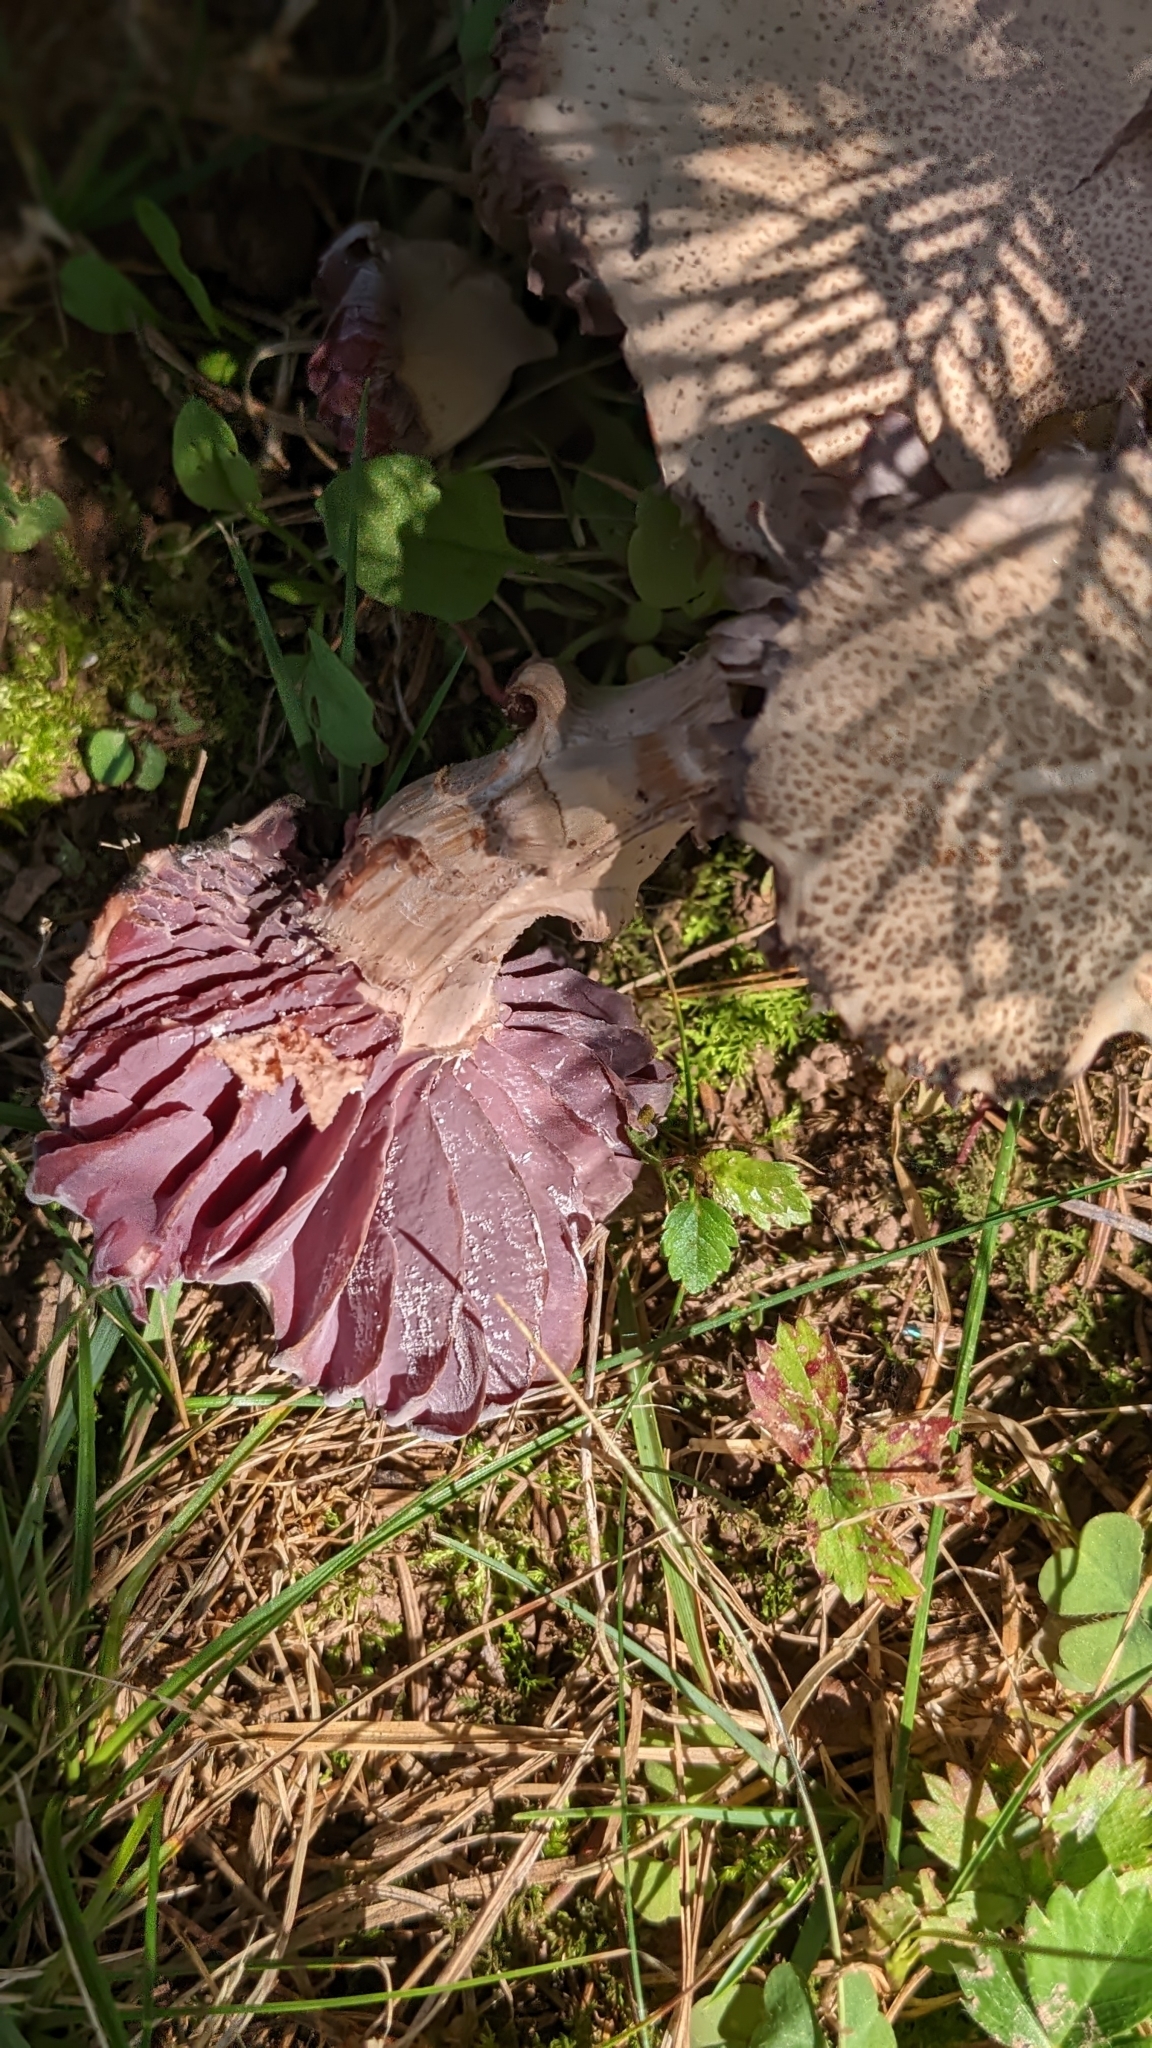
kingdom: Fungi
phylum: Basidiomycota
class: Agaricomycetes
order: Agaricales
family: Hydnangiaceae
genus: Laccaria
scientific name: Laccaria ochropurpurea
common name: Purple laccaria
